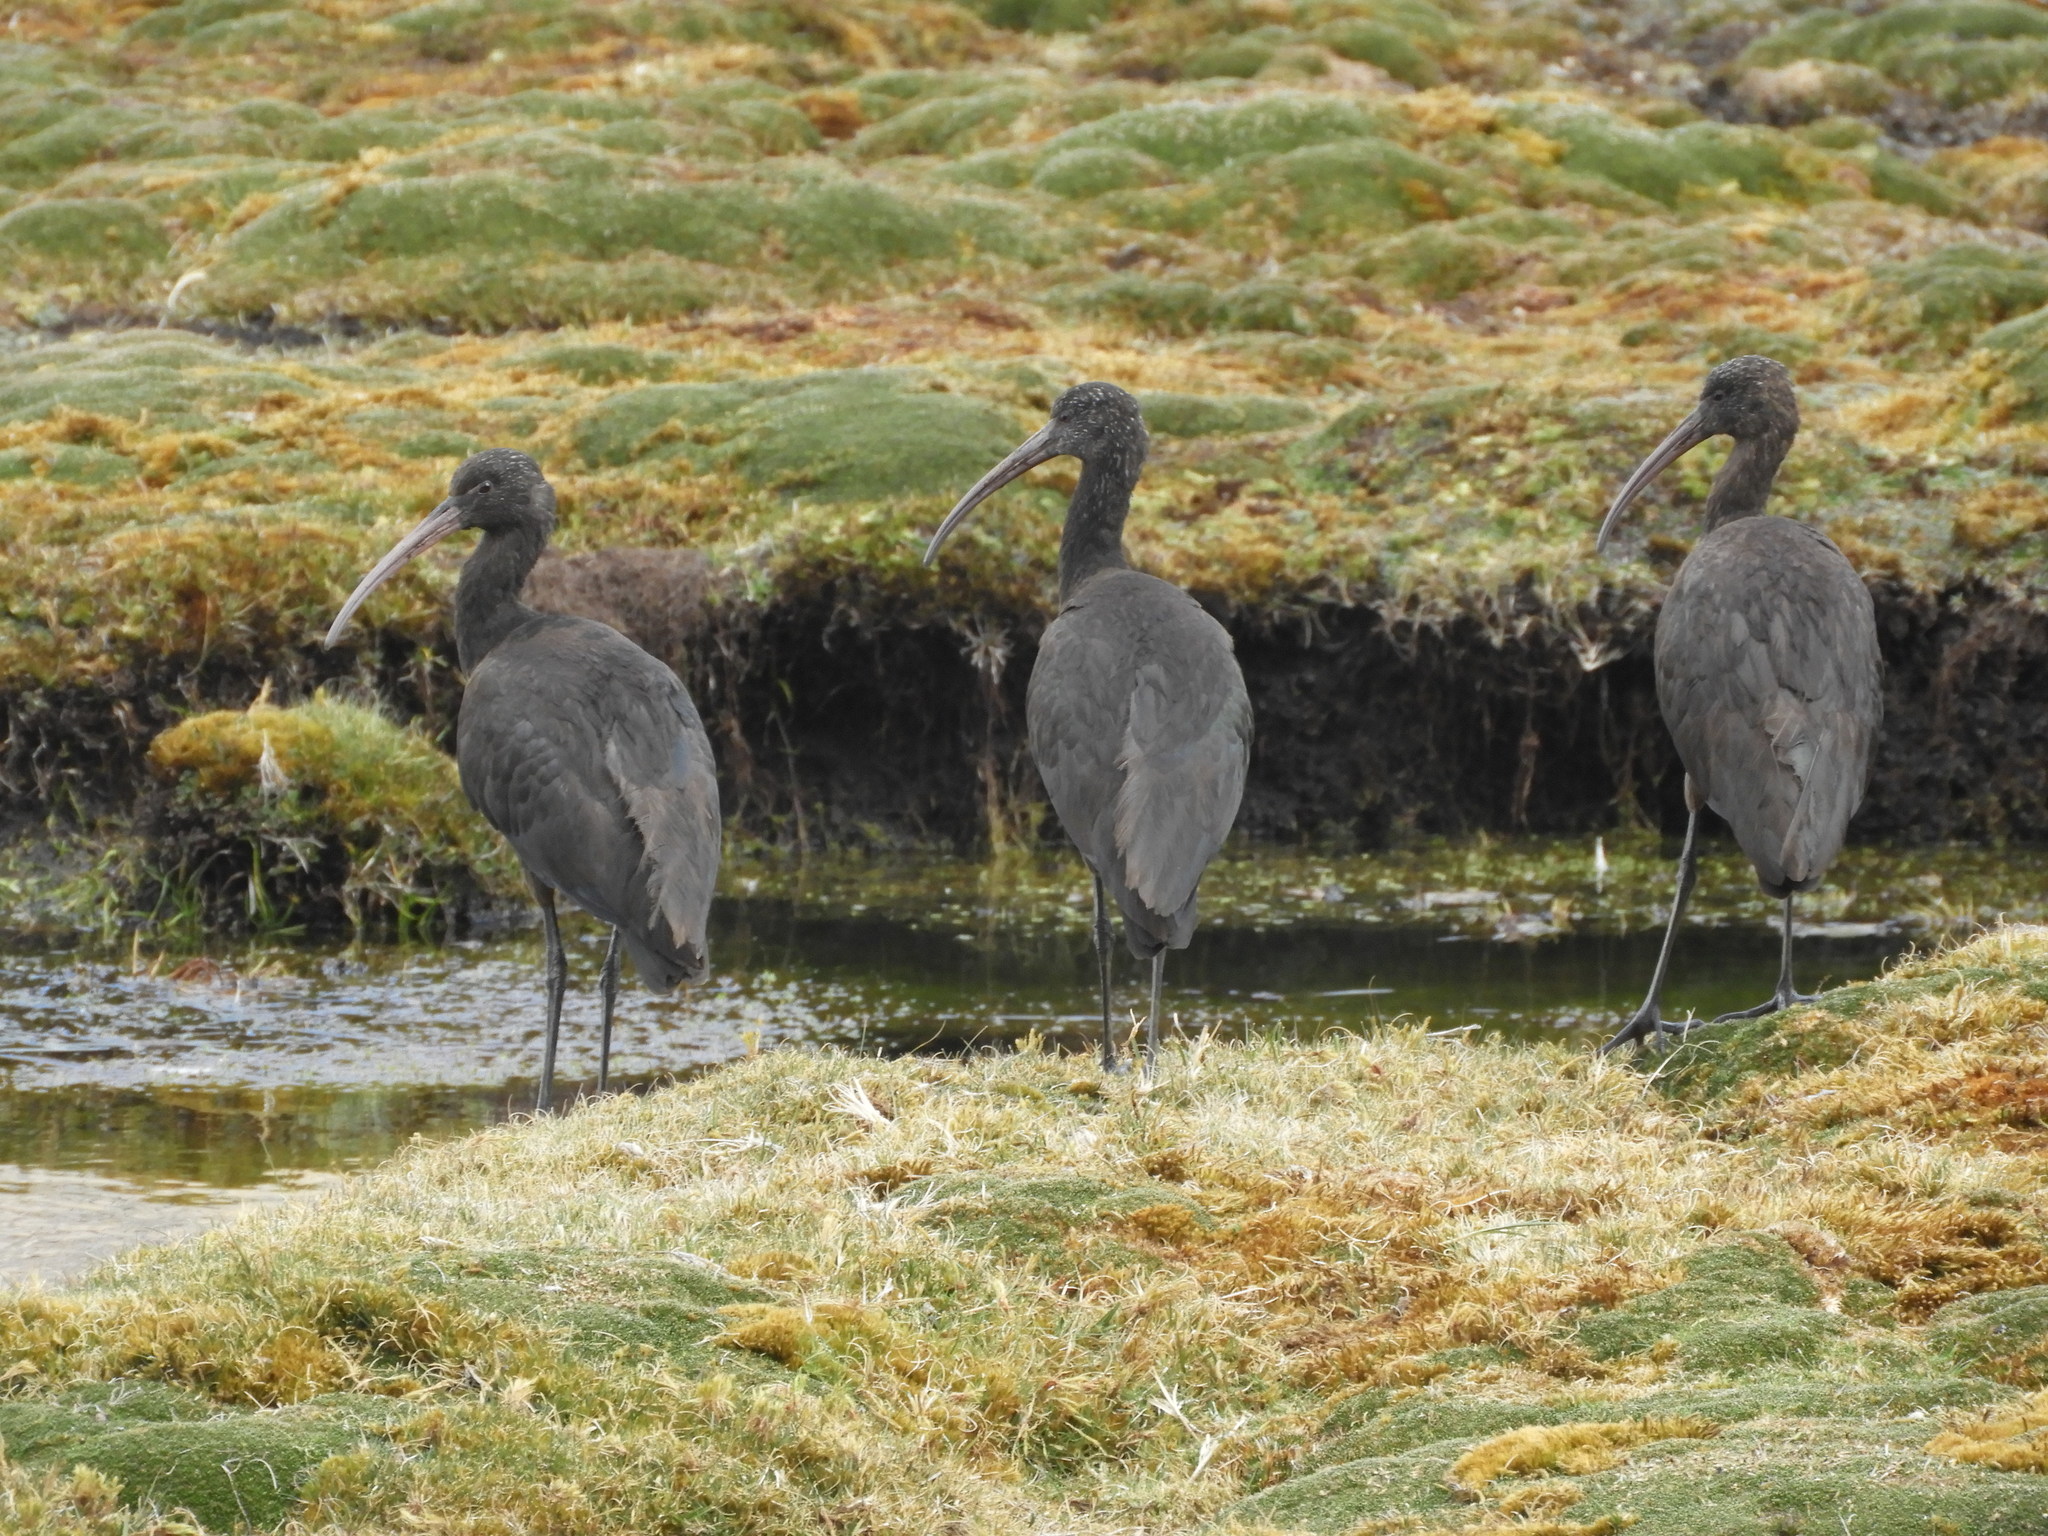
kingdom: Animalia
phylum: Chordata
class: Aves
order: Pelecaniformes
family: Threskiornithidae
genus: Plegadis
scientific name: Plegadis ridgwayi
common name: Puna ibis
